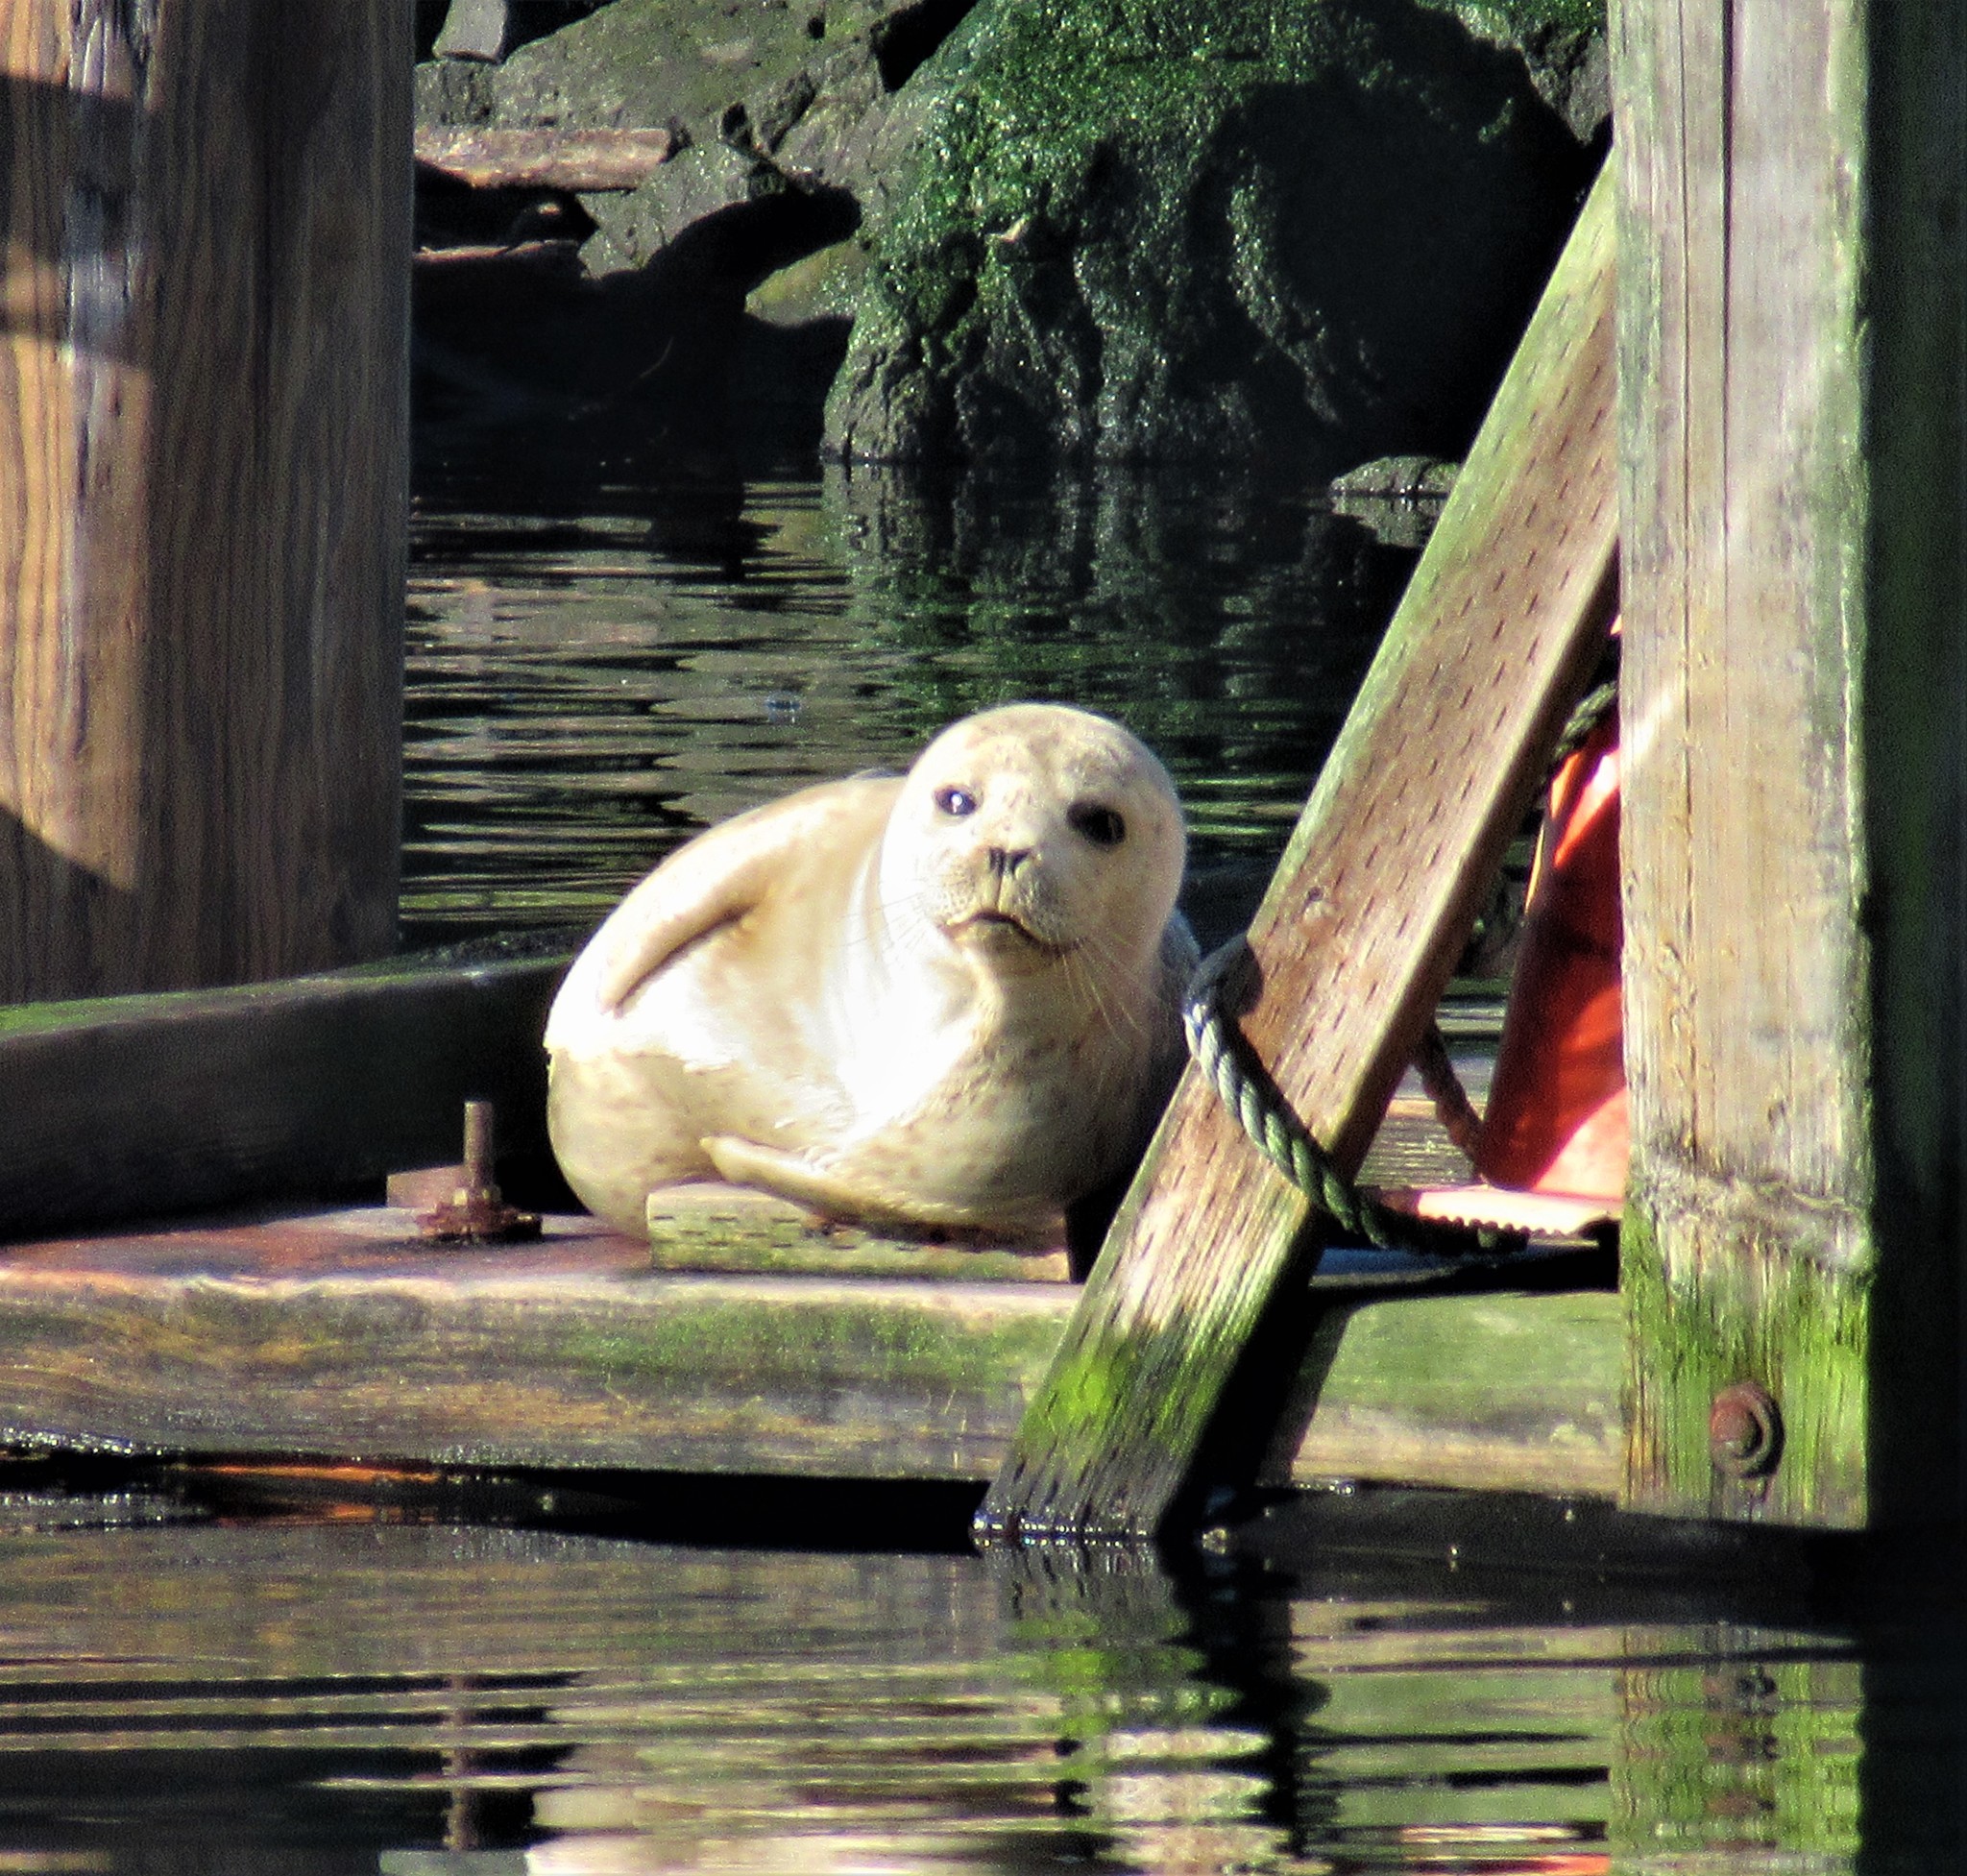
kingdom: Animalia
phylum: Chordata
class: Mammalia
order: Carnivora
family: Phocidae
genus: Phoca
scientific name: Phoca vitulina
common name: Harbor seal
